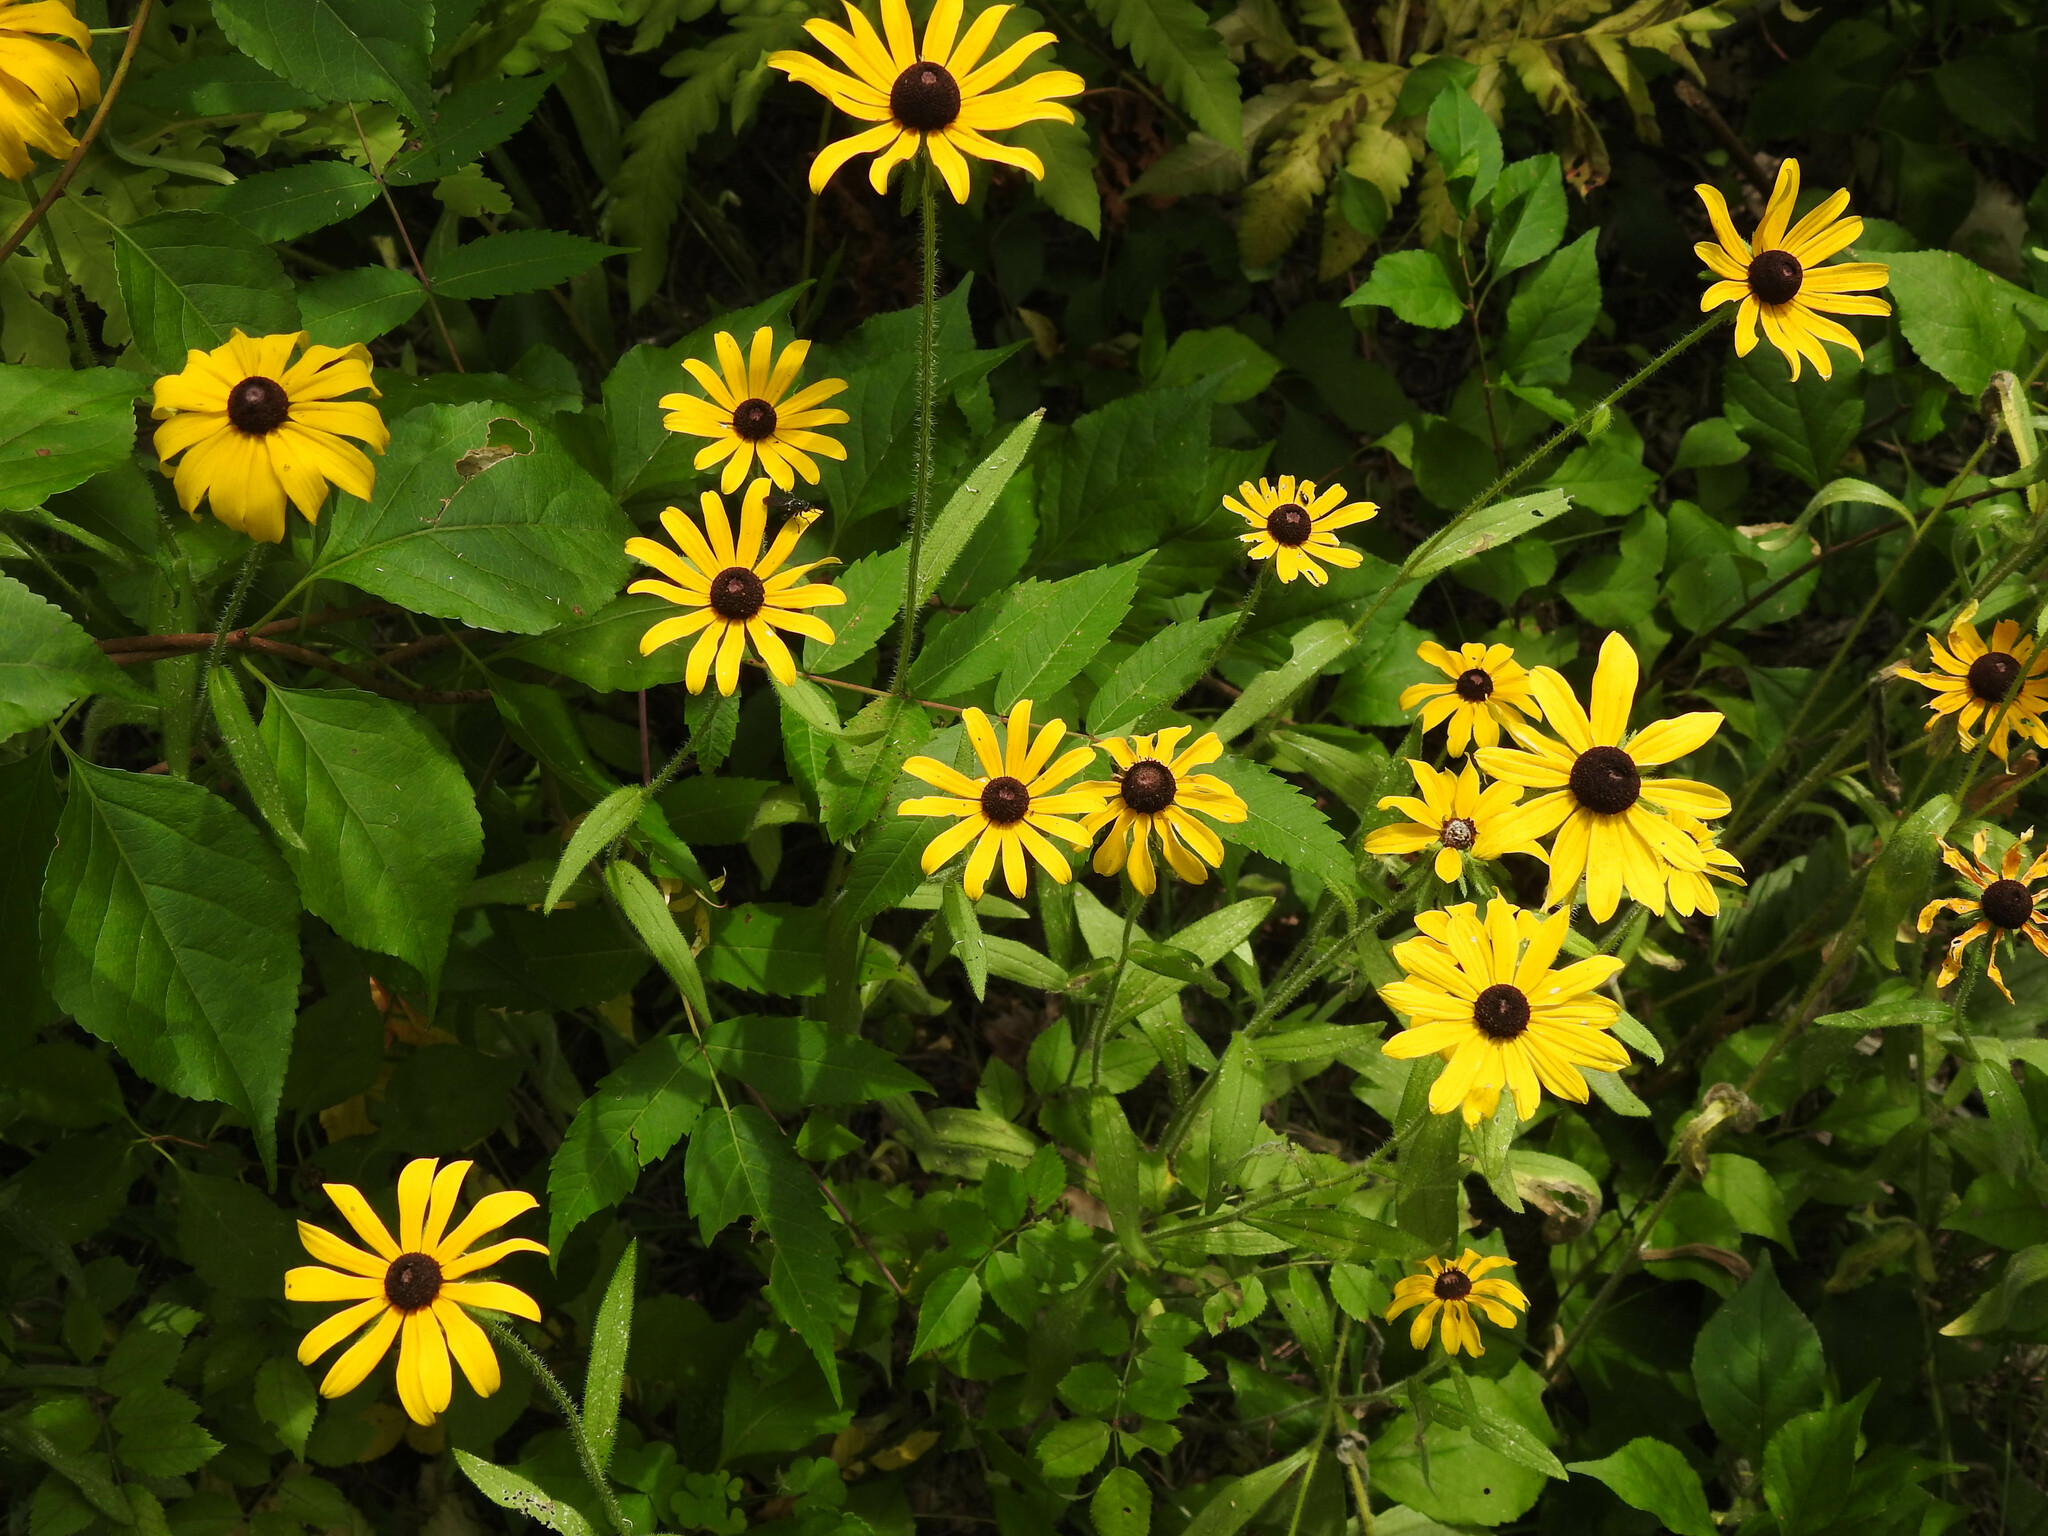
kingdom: Plantae
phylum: Tracheophyta
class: Magnoliopsida
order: Asterales
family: Asteraceae
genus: Rudbeckia
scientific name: Rudbeckia hirta
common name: Black-eyed-susan
